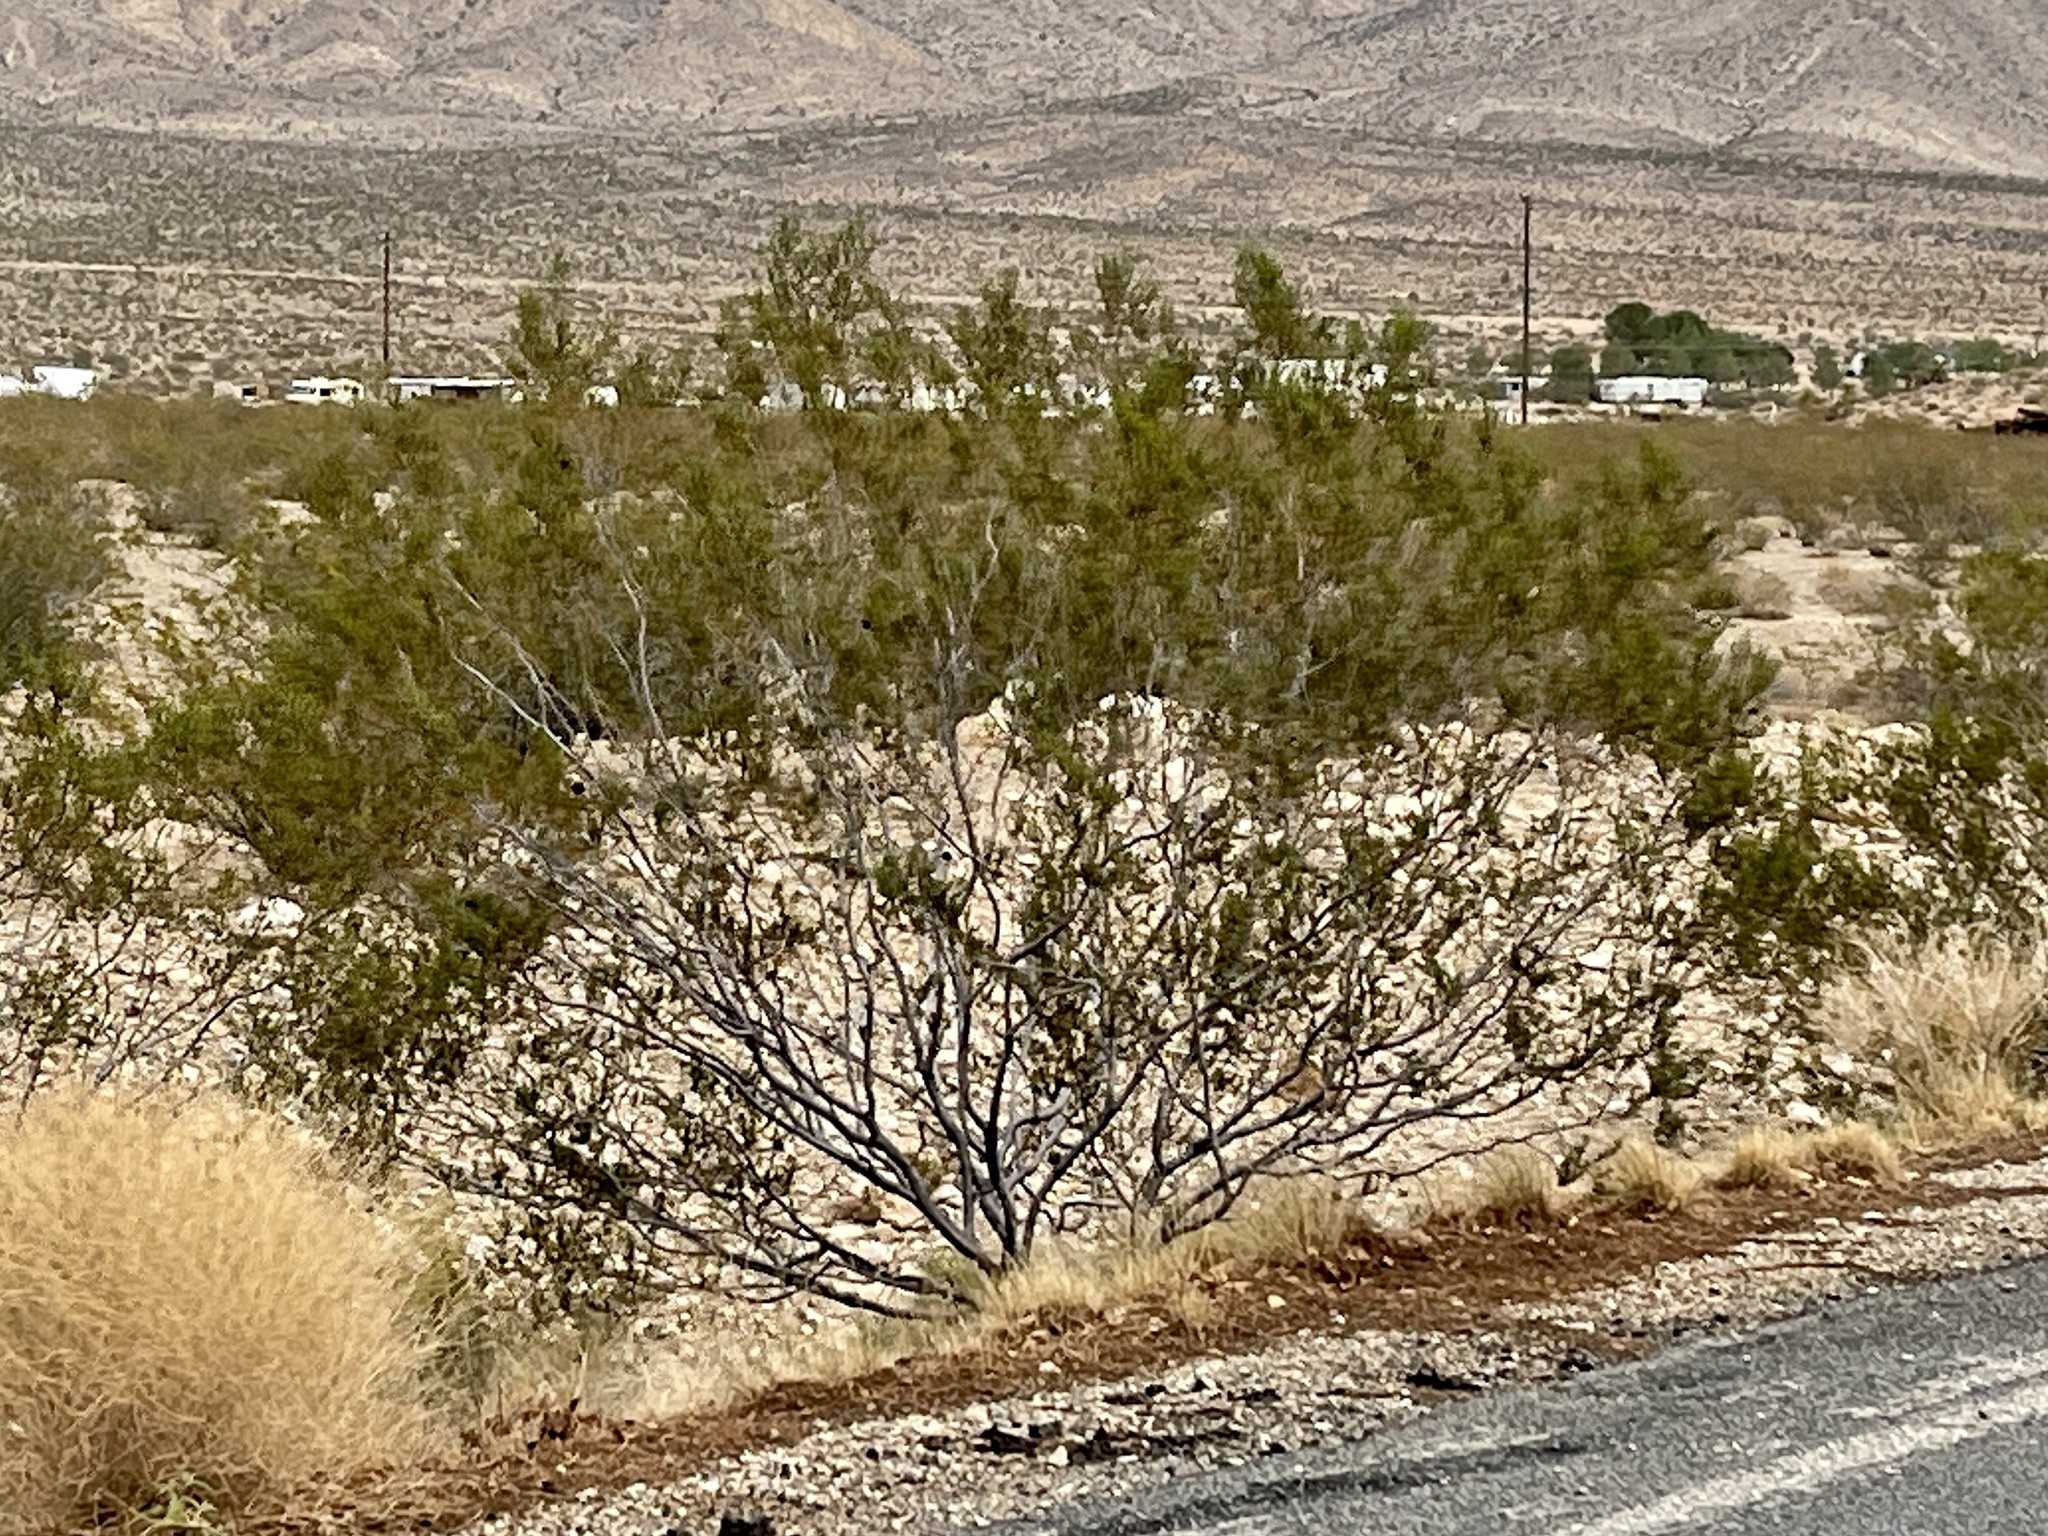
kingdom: Plantae
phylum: Tracheophyta
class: Magnoliopsida
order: Zygophyllales
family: Zygophyllaceae
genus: Larrea
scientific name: Larrea tridentata
